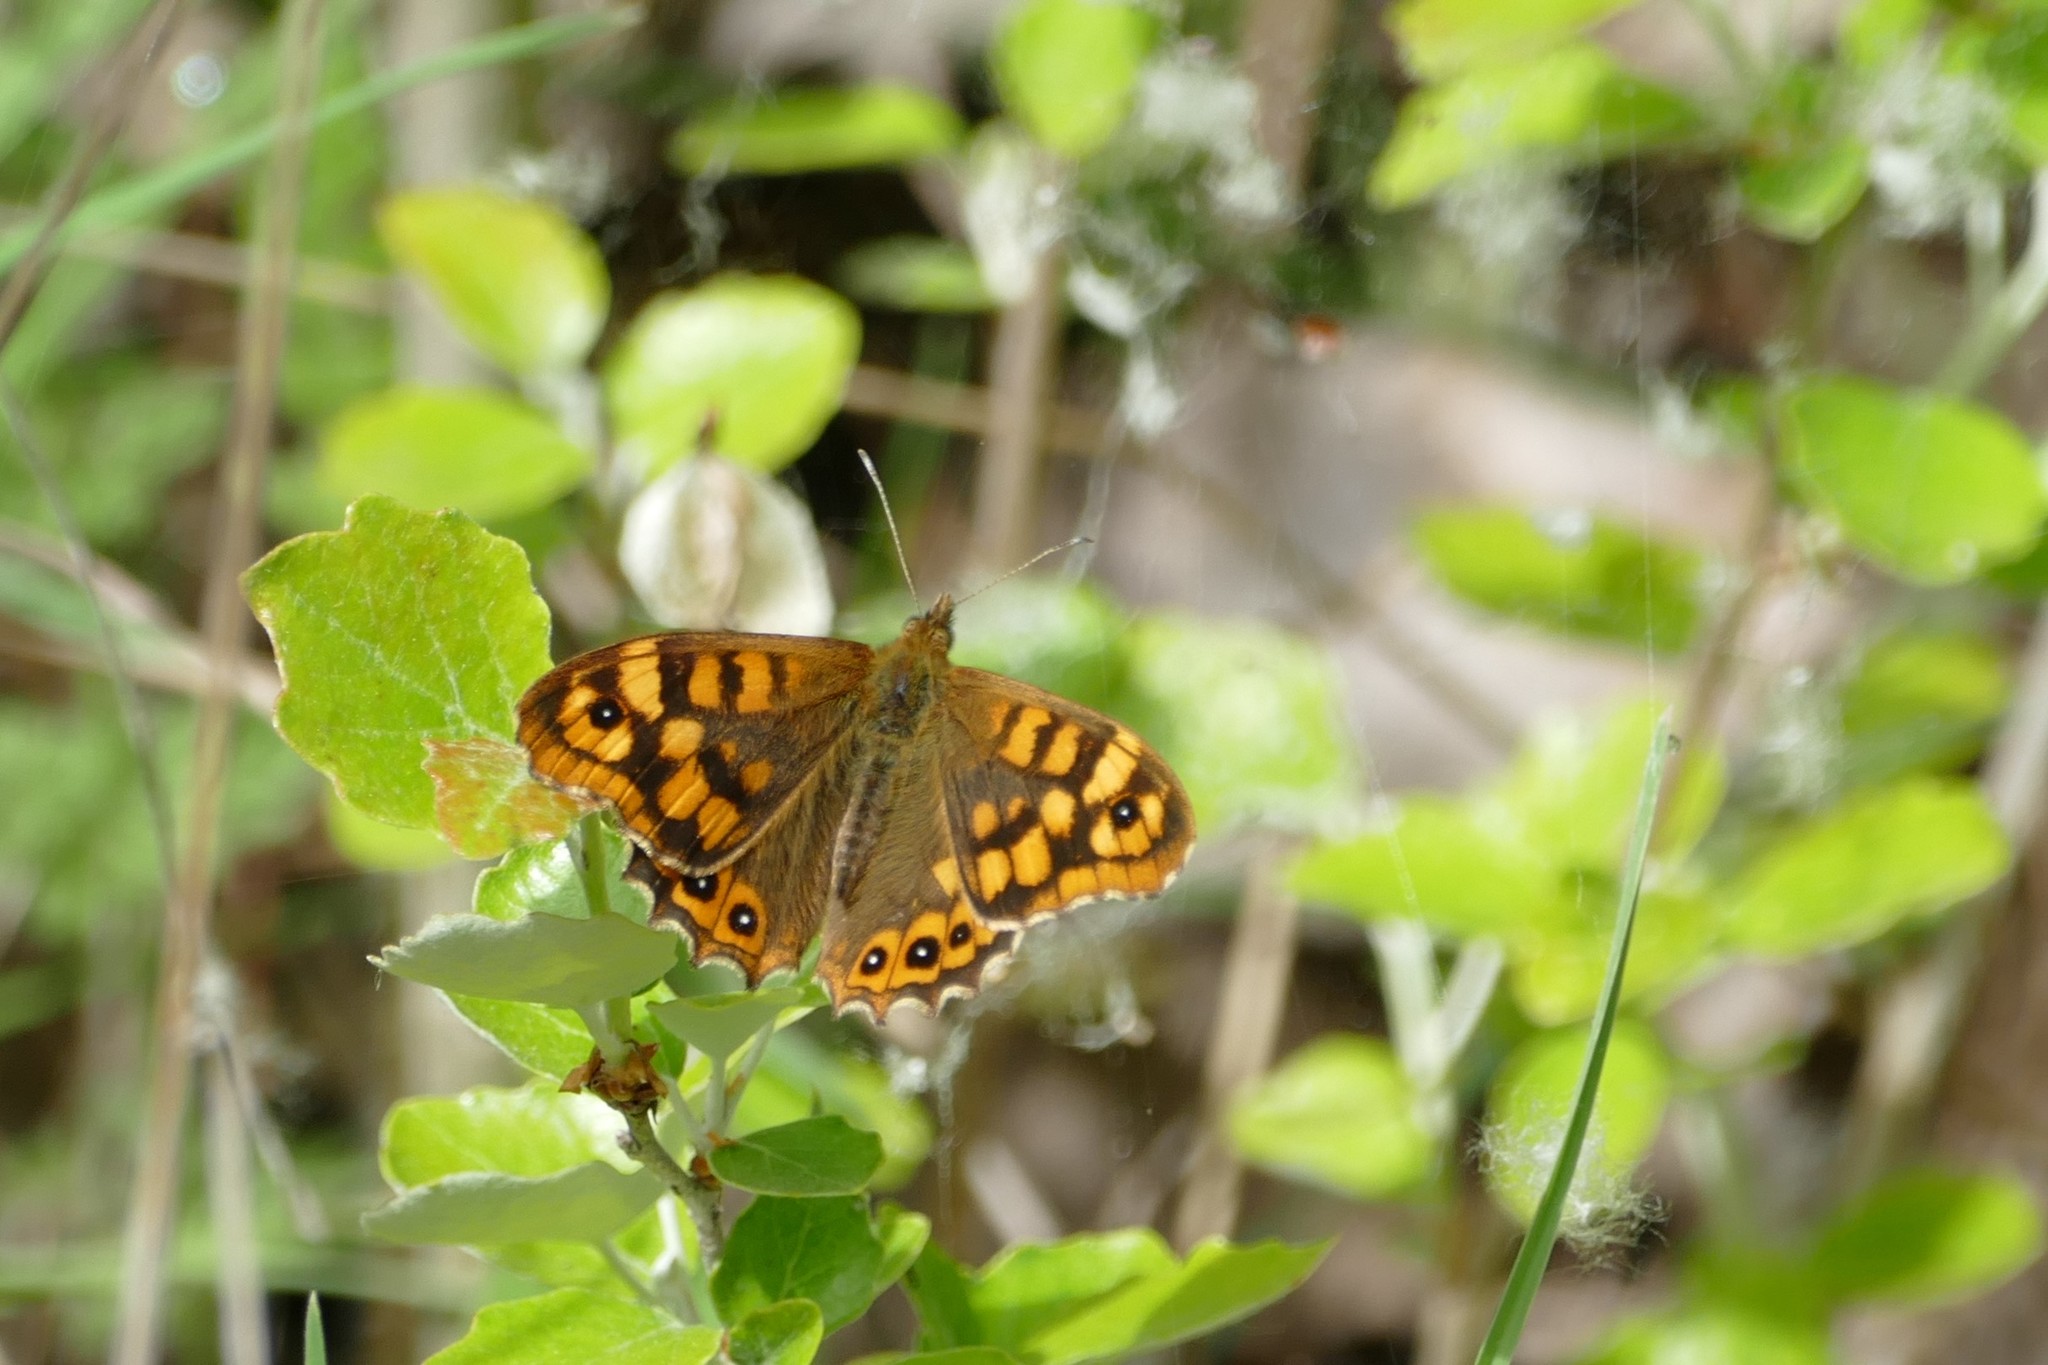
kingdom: Animalia
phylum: Arthropoda
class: Insecta
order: Lepidoptera
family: Nymphalidae
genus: Pararge
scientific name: Pararge aegeria
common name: Speckled wood
